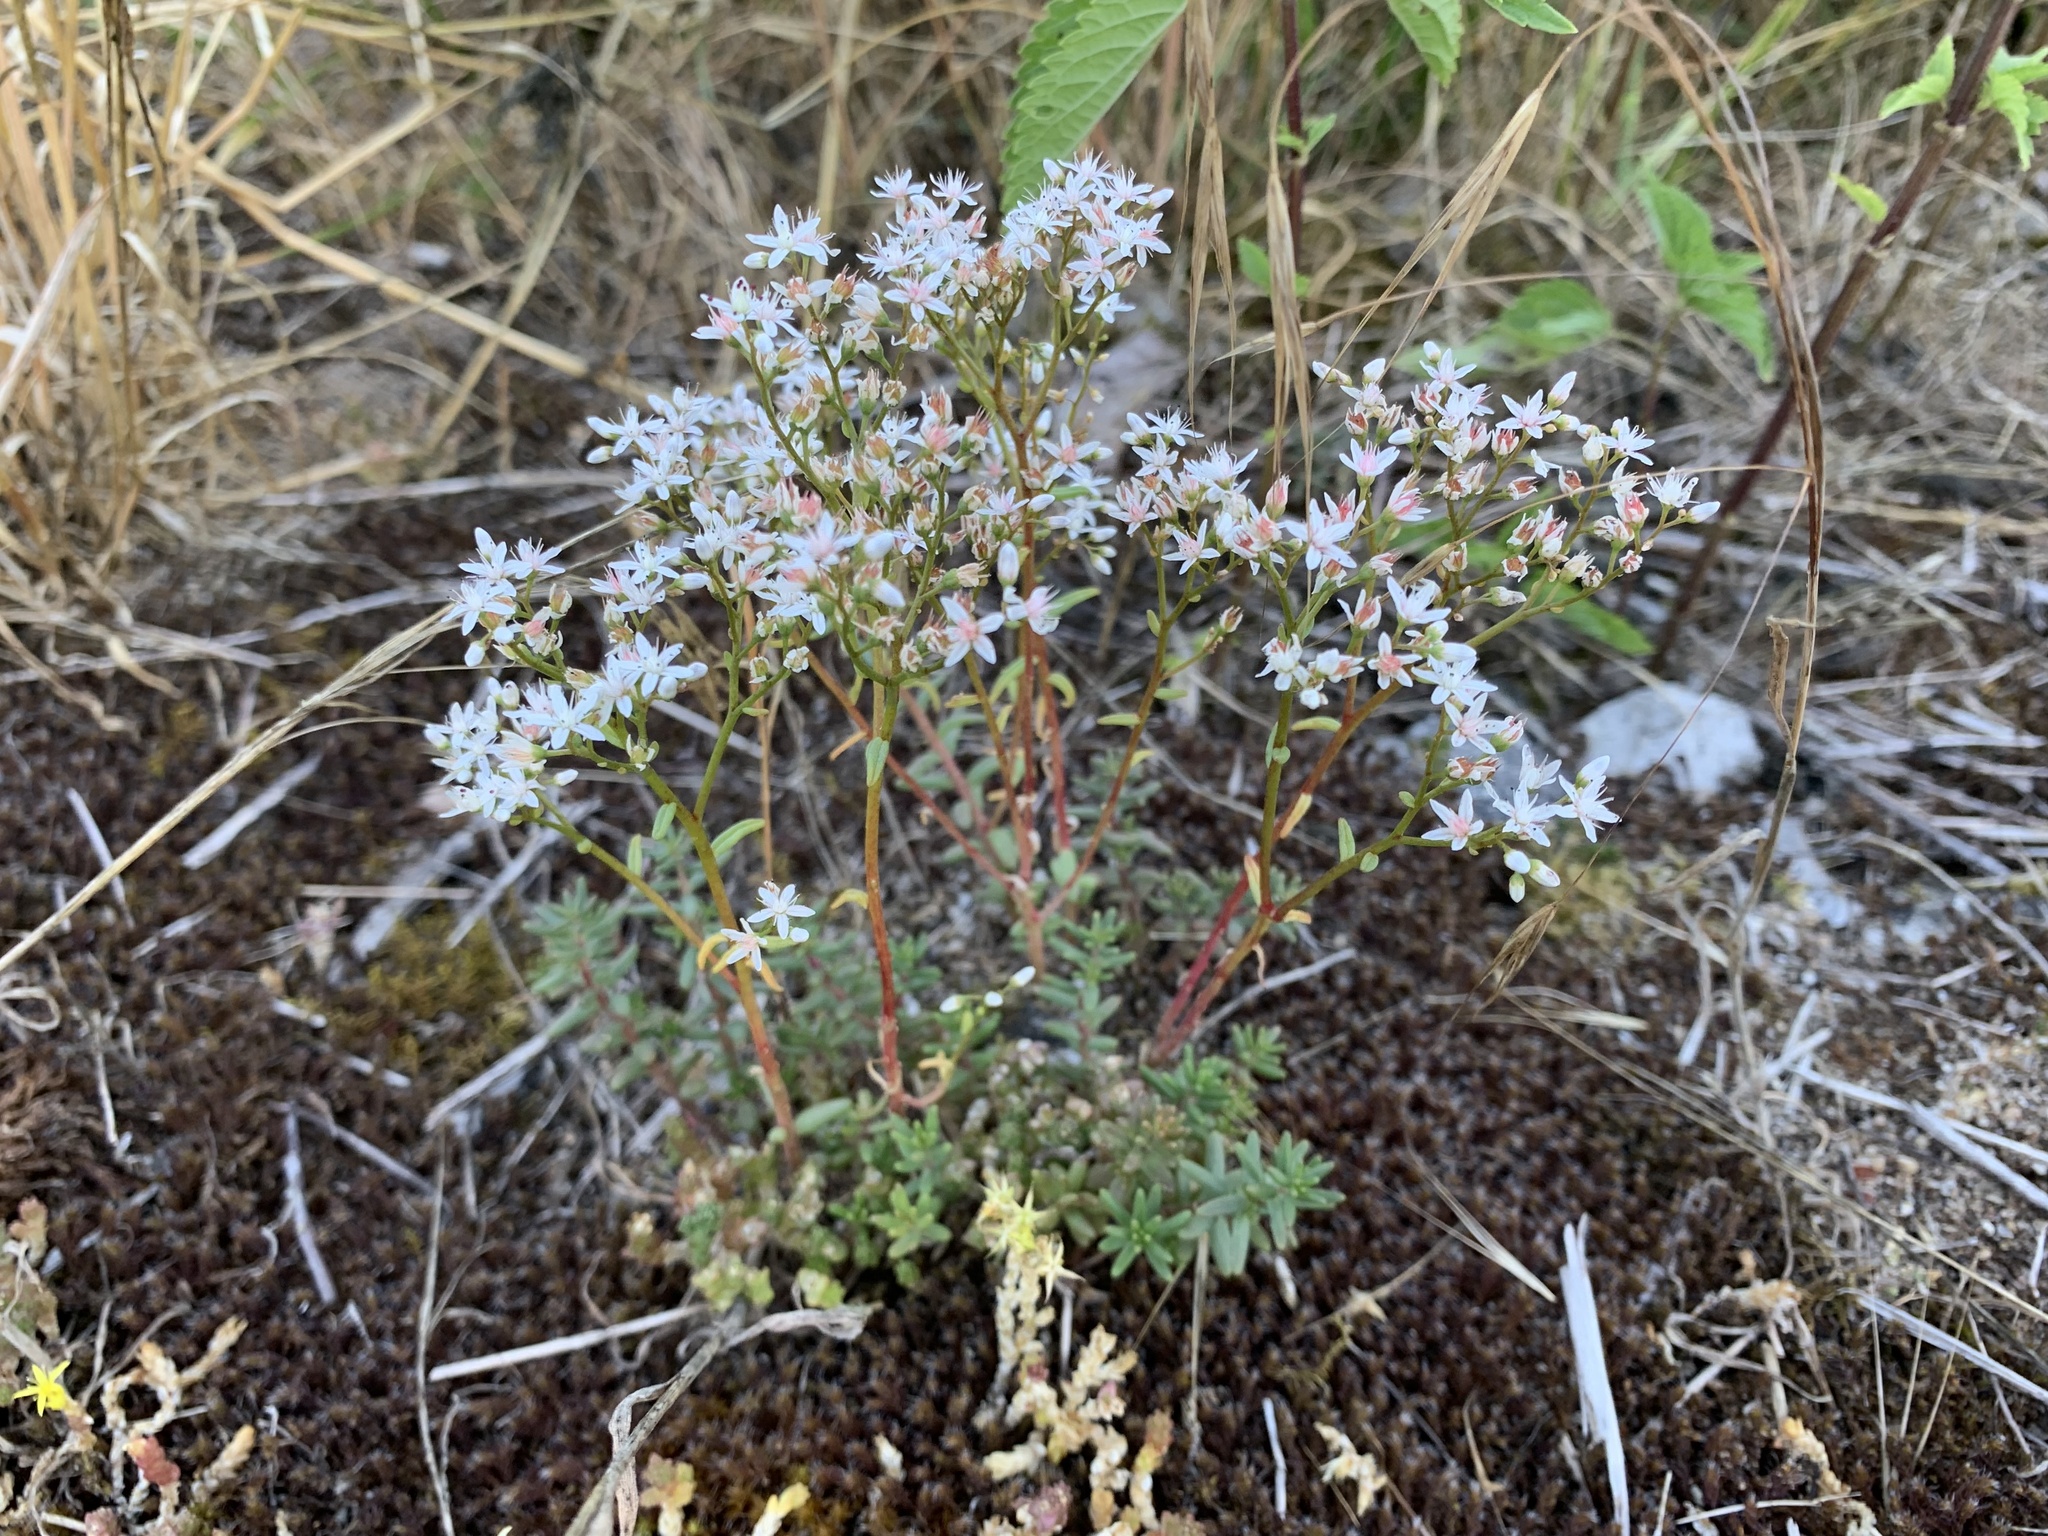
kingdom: Plantae
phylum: Tracheophyta
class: Magnoliopsida
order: Saxifragales
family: Crassulaceae
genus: Sedum
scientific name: Sedum album
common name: White stonecrop
